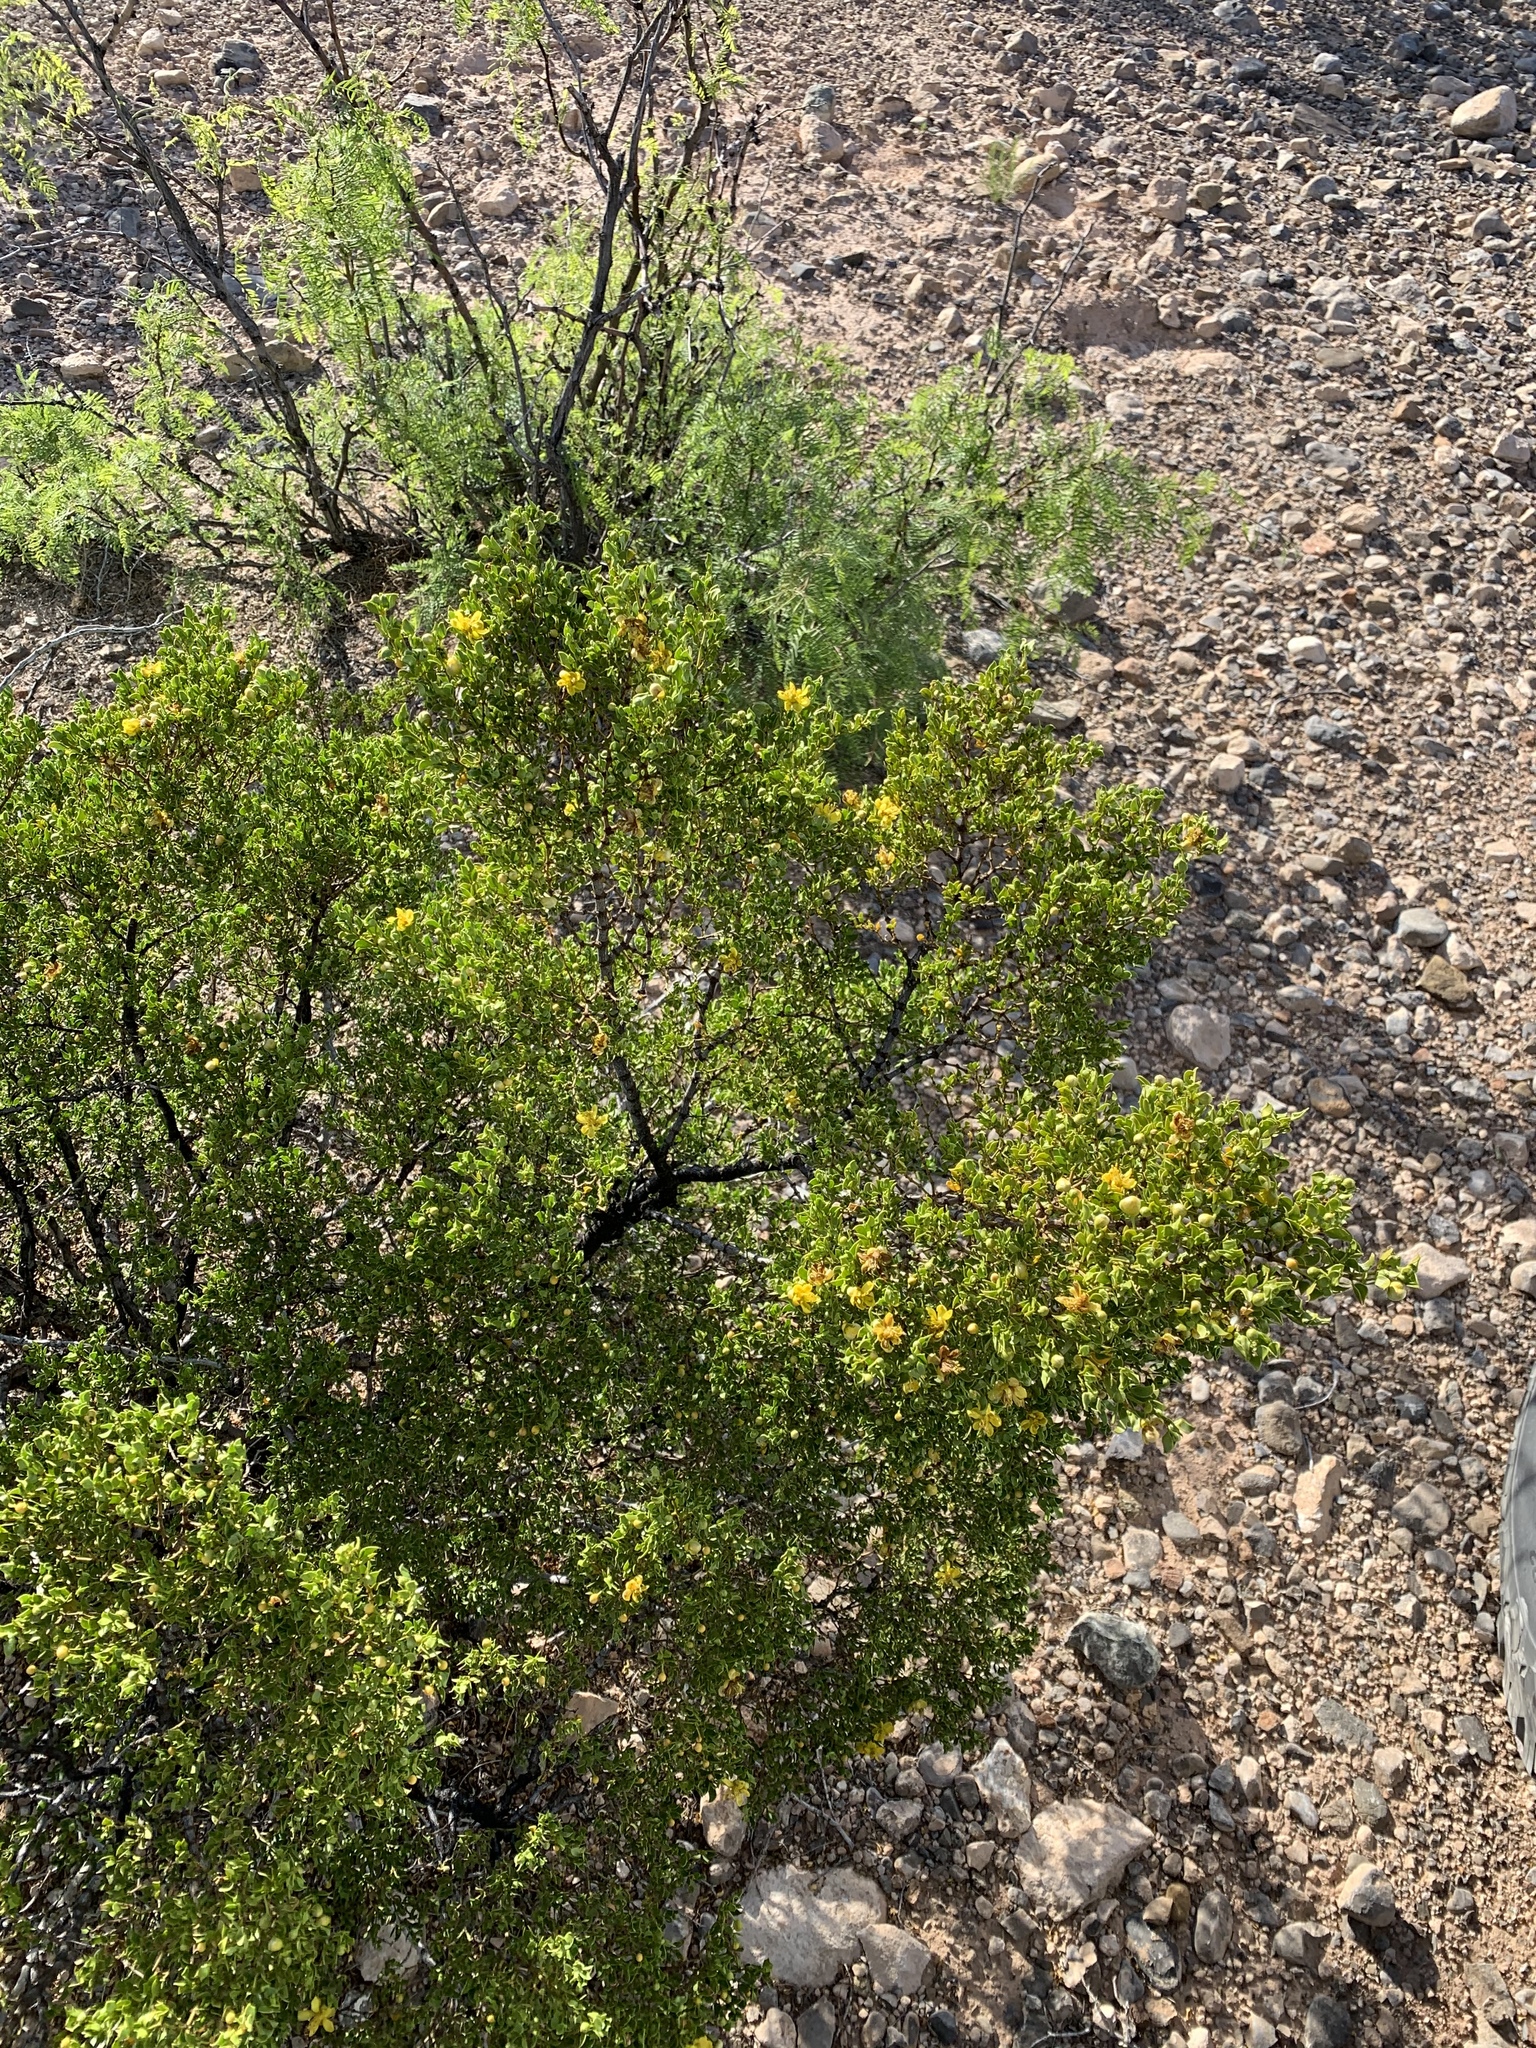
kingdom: Plantae
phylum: Tracheophyta
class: Magnoliopsida
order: Zygophyllales
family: Zygophyllaceae
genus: Larrea
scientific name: Larrea tridentata
